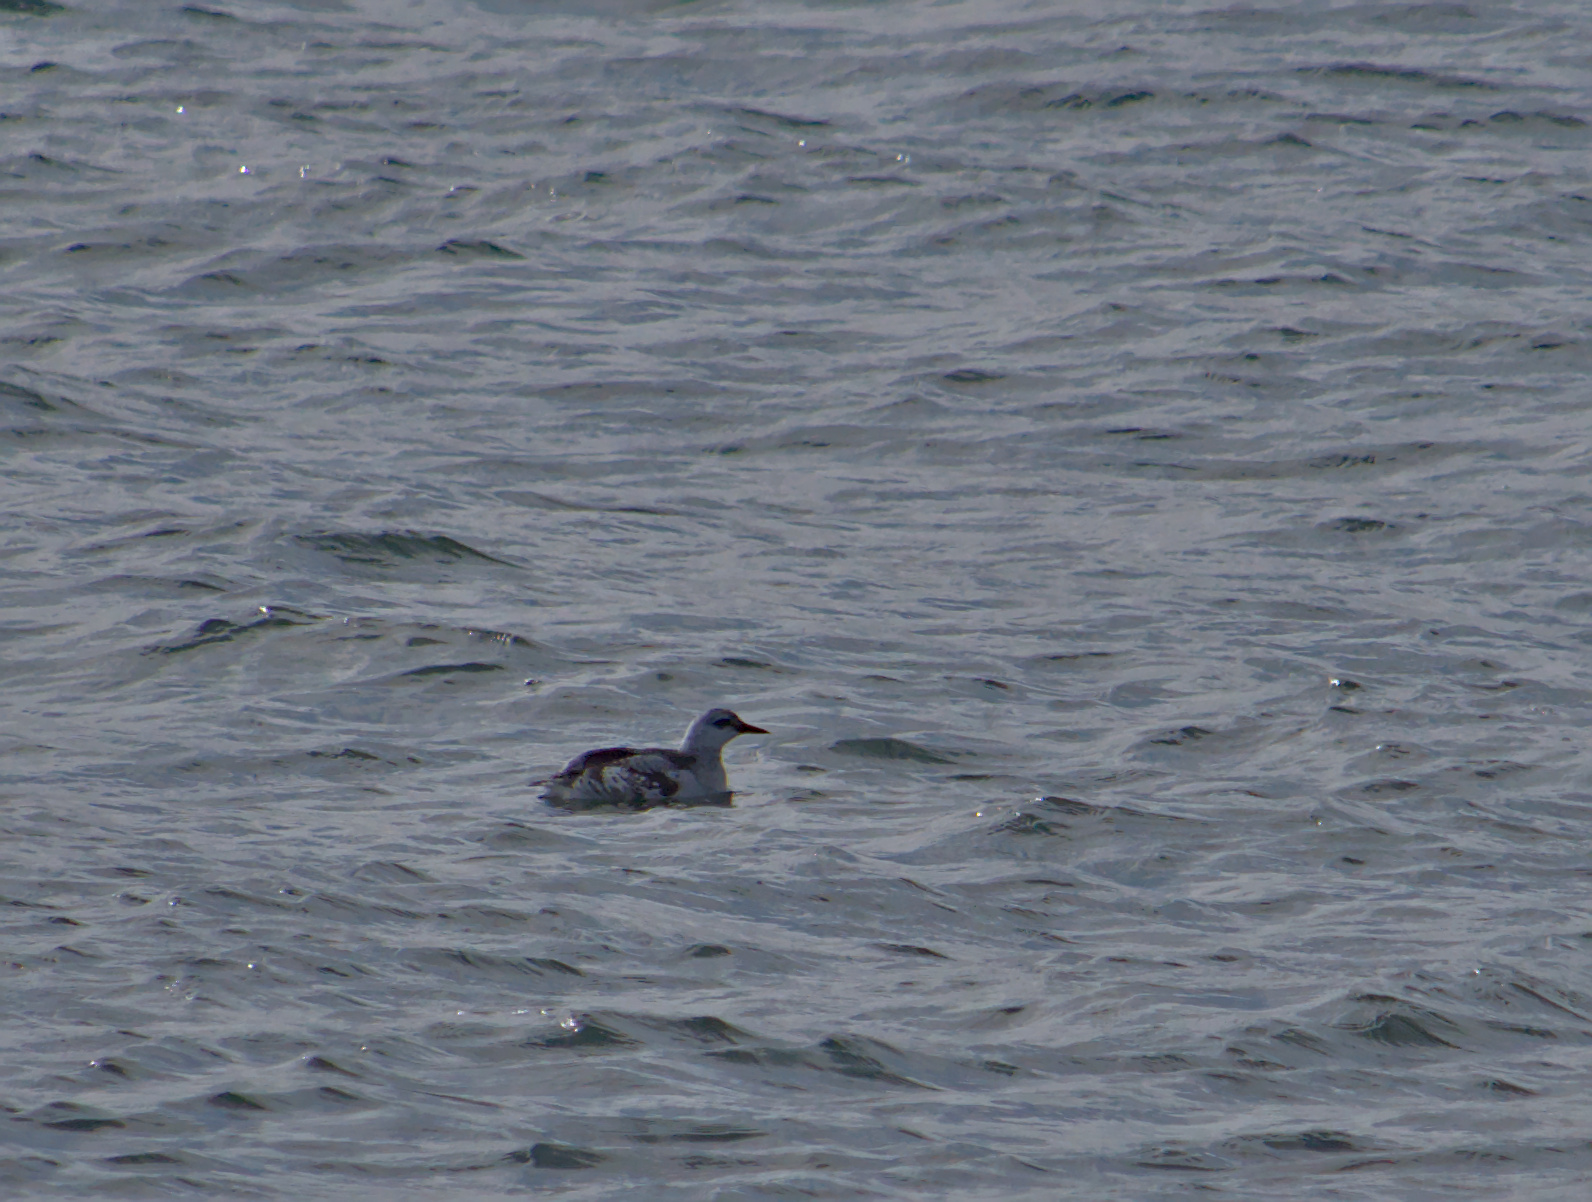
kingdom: Animalia
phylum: Chordata
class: Aves
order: Charadriiformes
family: Alcidae
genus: Cepphus
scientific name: Cepphus grylle
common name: Black guillemot
